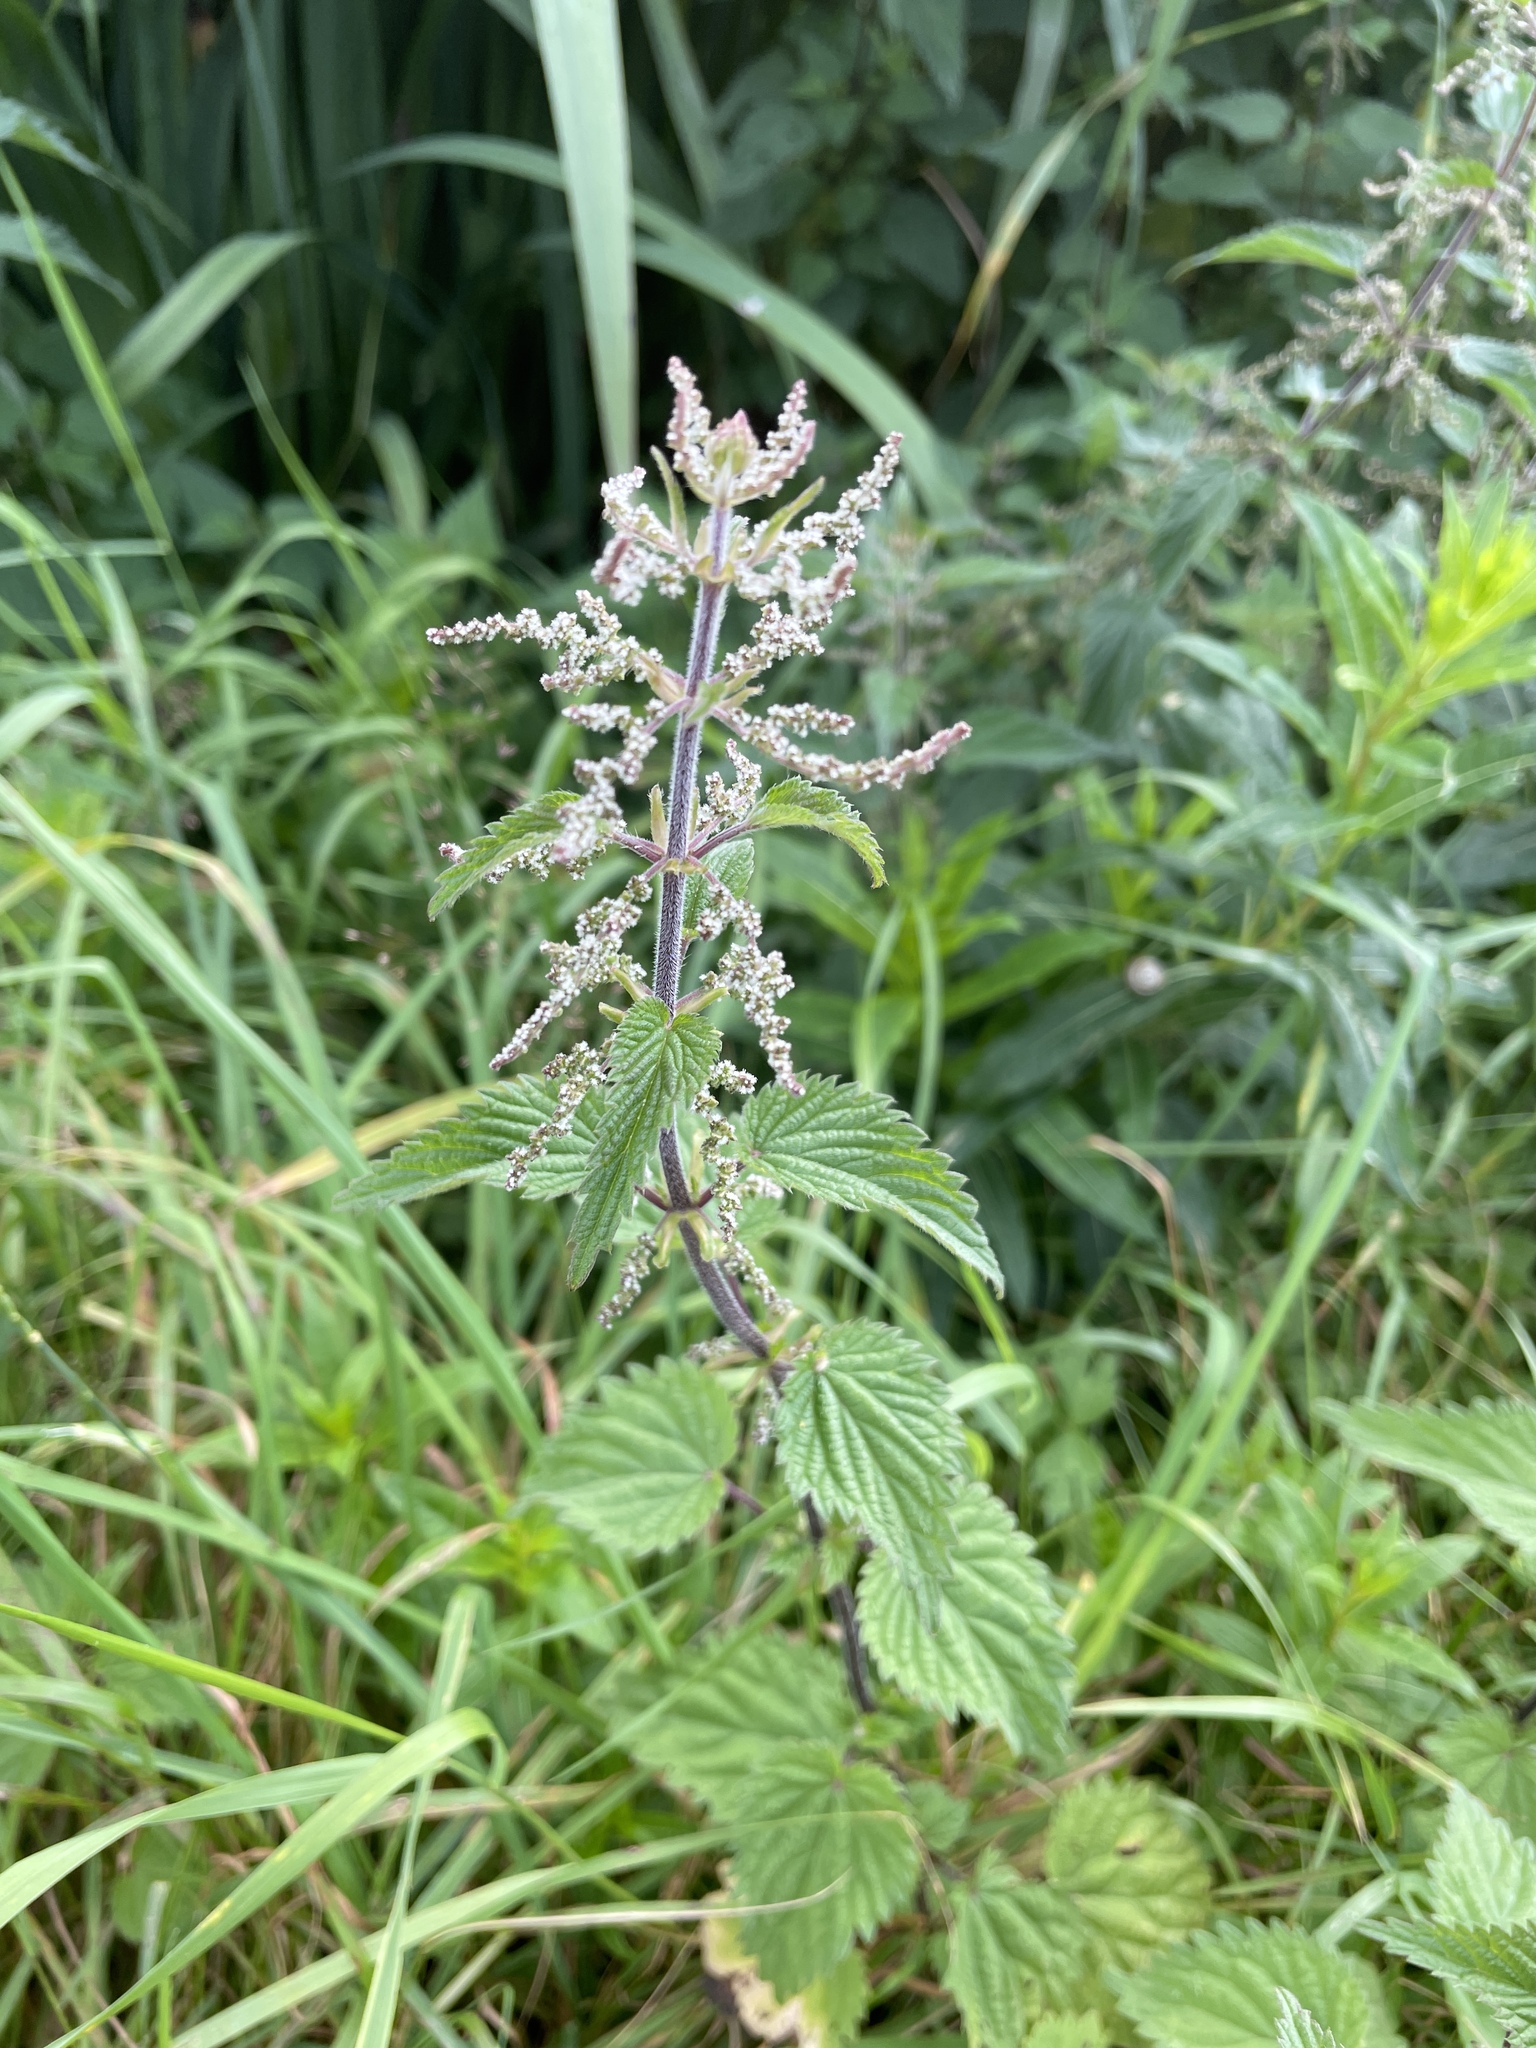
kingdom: Plantae
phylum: Tracheophyta
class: Magnoliopsida
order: Rosales
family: Urticaceae
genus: Urtica
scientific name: Urtica dioica
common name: Common nettle
